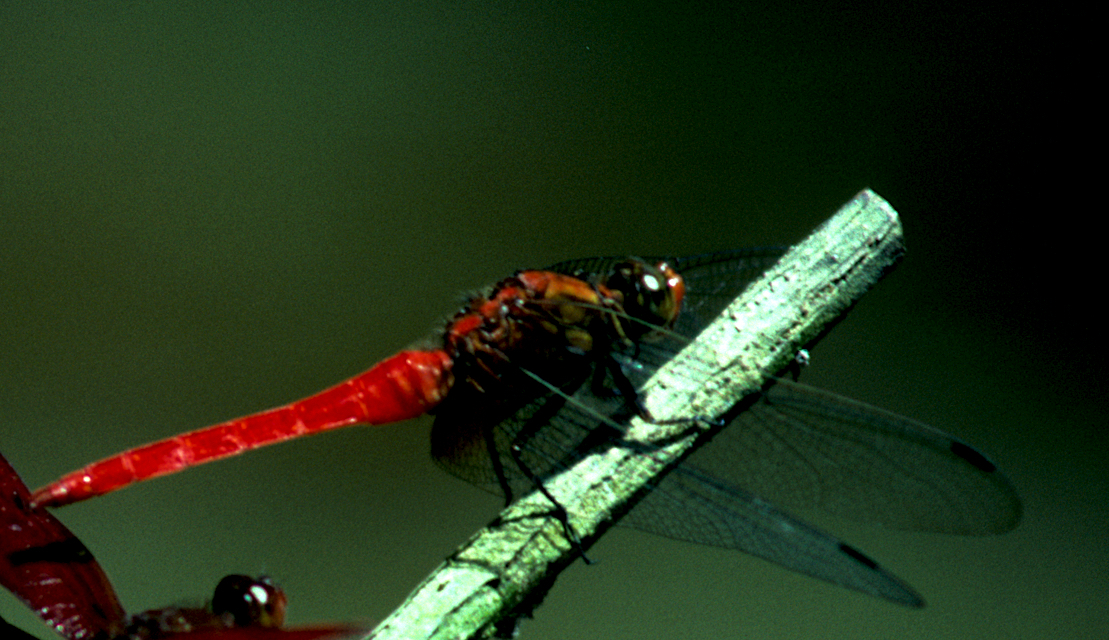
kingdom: Animalia
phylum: Arthropoda
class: Insecta
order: Odonata
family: Libellulidae
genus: Orthetrum
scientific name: Orthetrum testaceum
